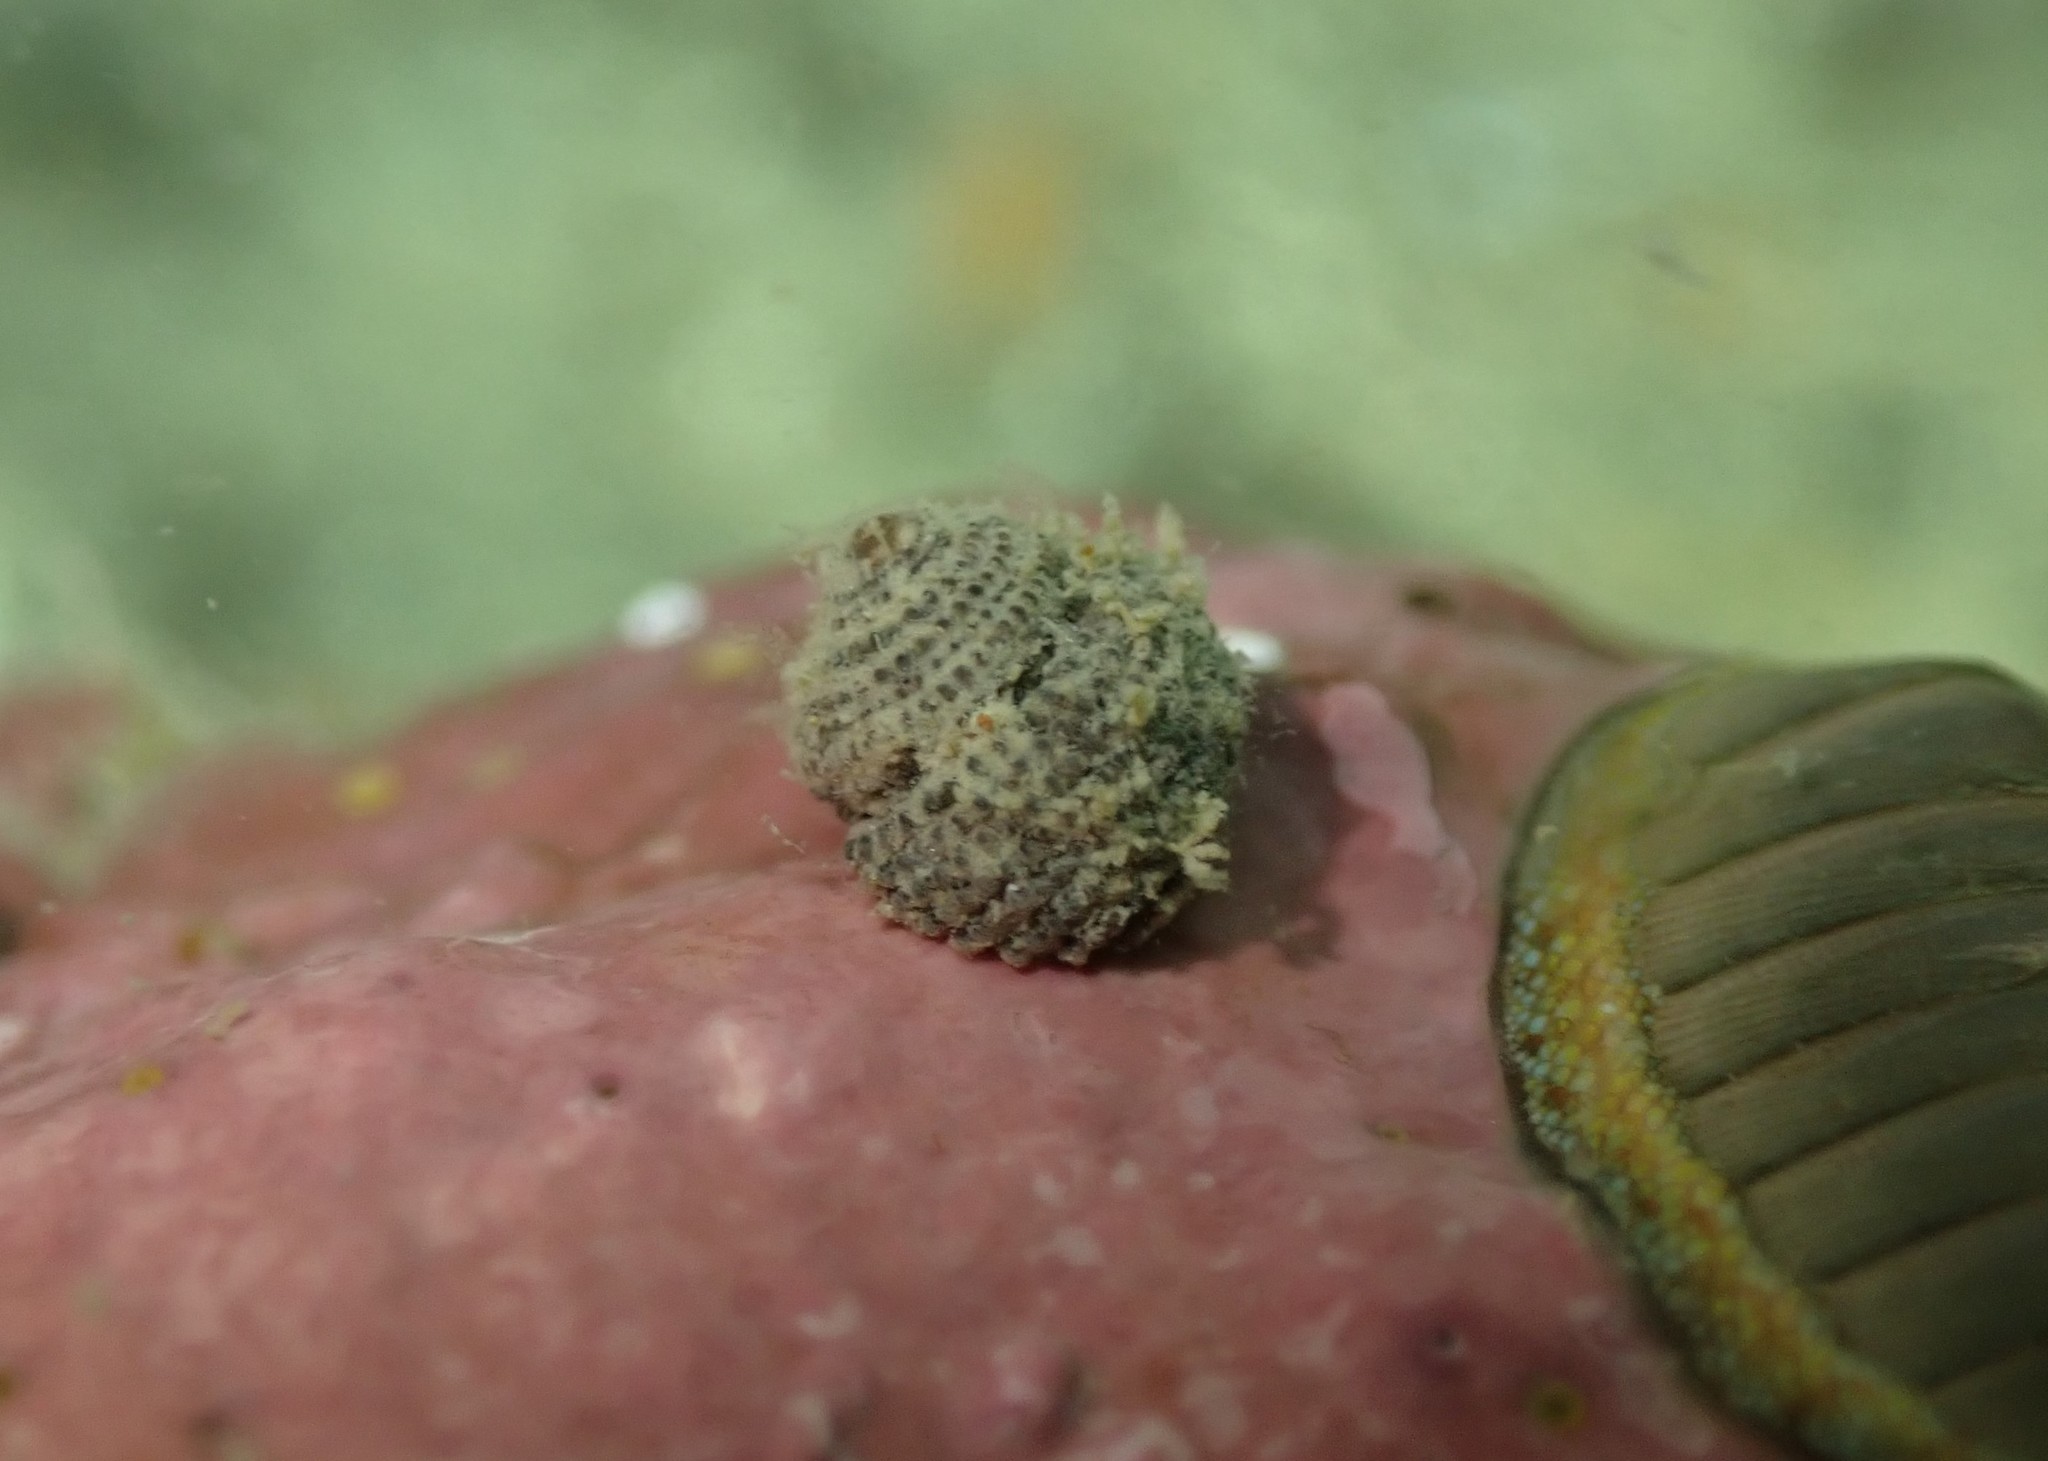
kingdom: Animalia
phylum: Mollusca
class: Gastropoda
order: Seguenziida
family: Chilodontaidae
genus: Herpetopoma
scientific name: Herpetopoma bellum
